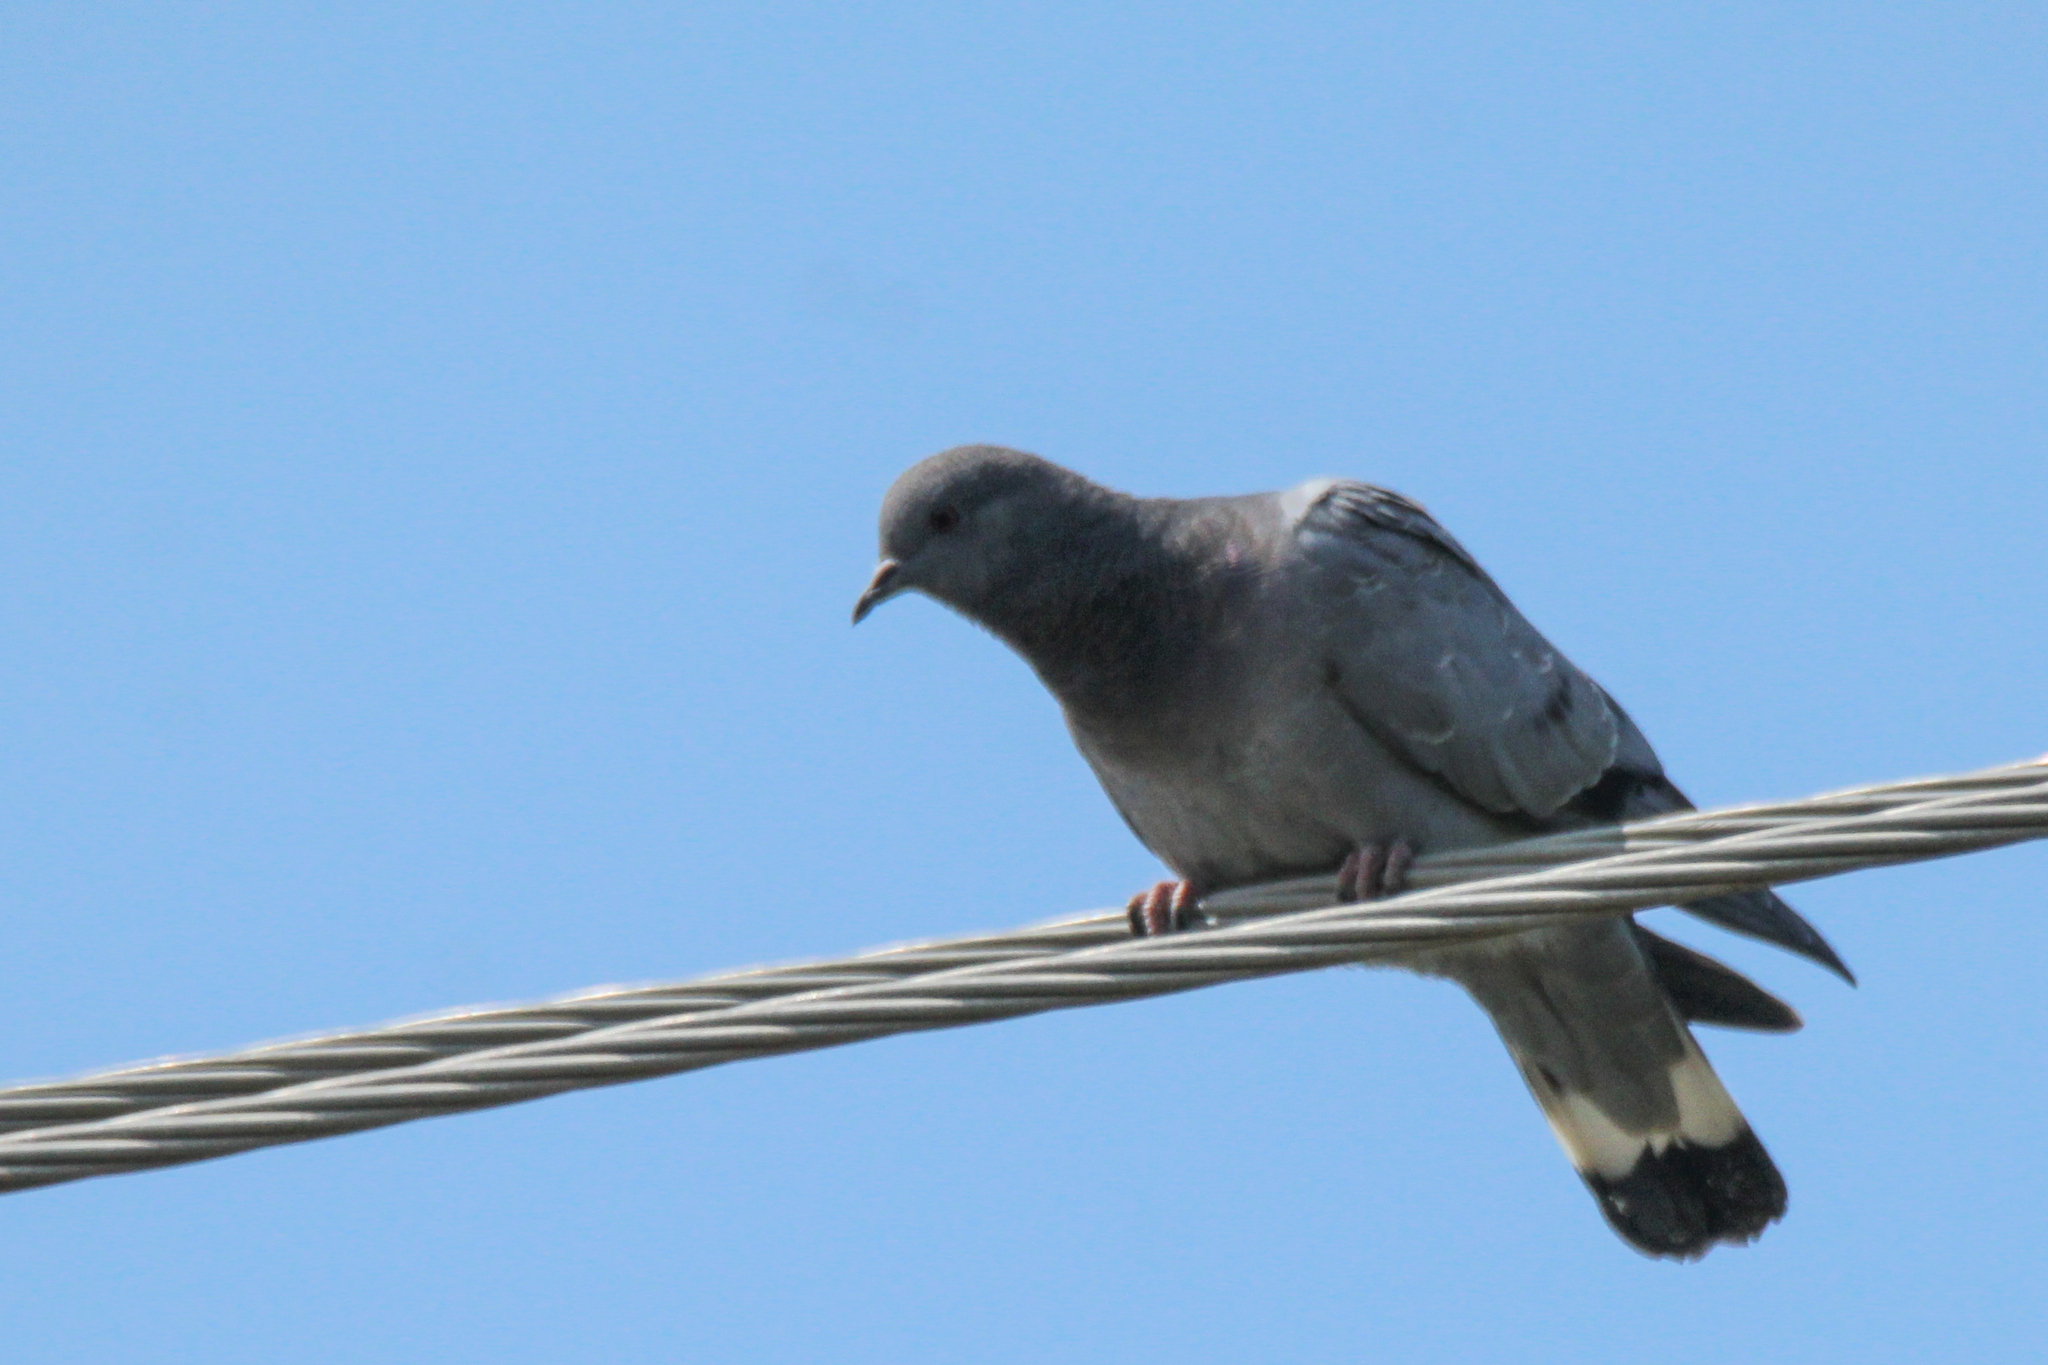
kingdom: Animalia
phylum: Chordata
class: Aves
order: Columbiformes
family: Columbidae
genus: Columba
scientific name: Columba rupestris
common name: Hill pigeon
